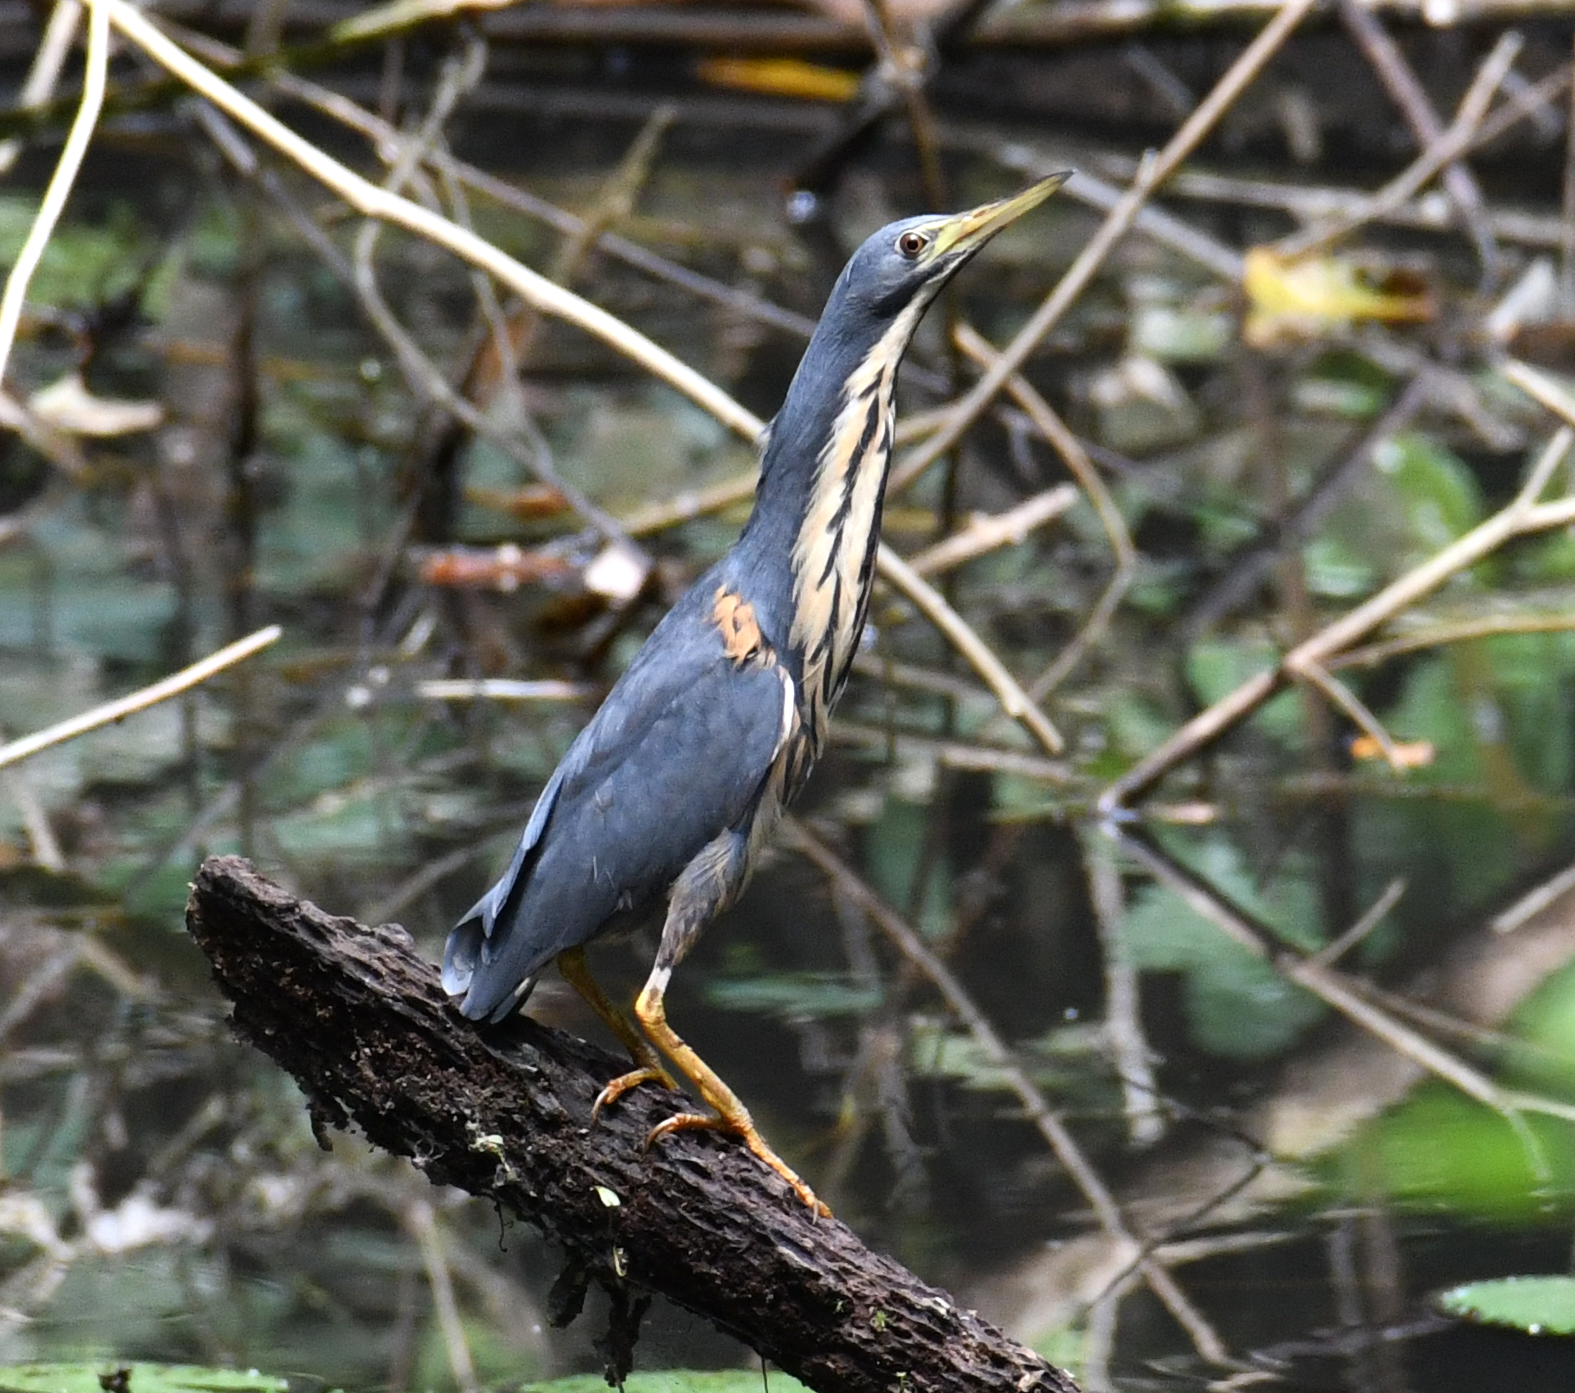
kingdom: Animalia
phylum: Chordata
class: Aves
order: Pelecaniformes
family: Ardeidae
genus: Ixobrychus
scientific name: Ixobrychus sturmii
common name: Dwarf bittern
